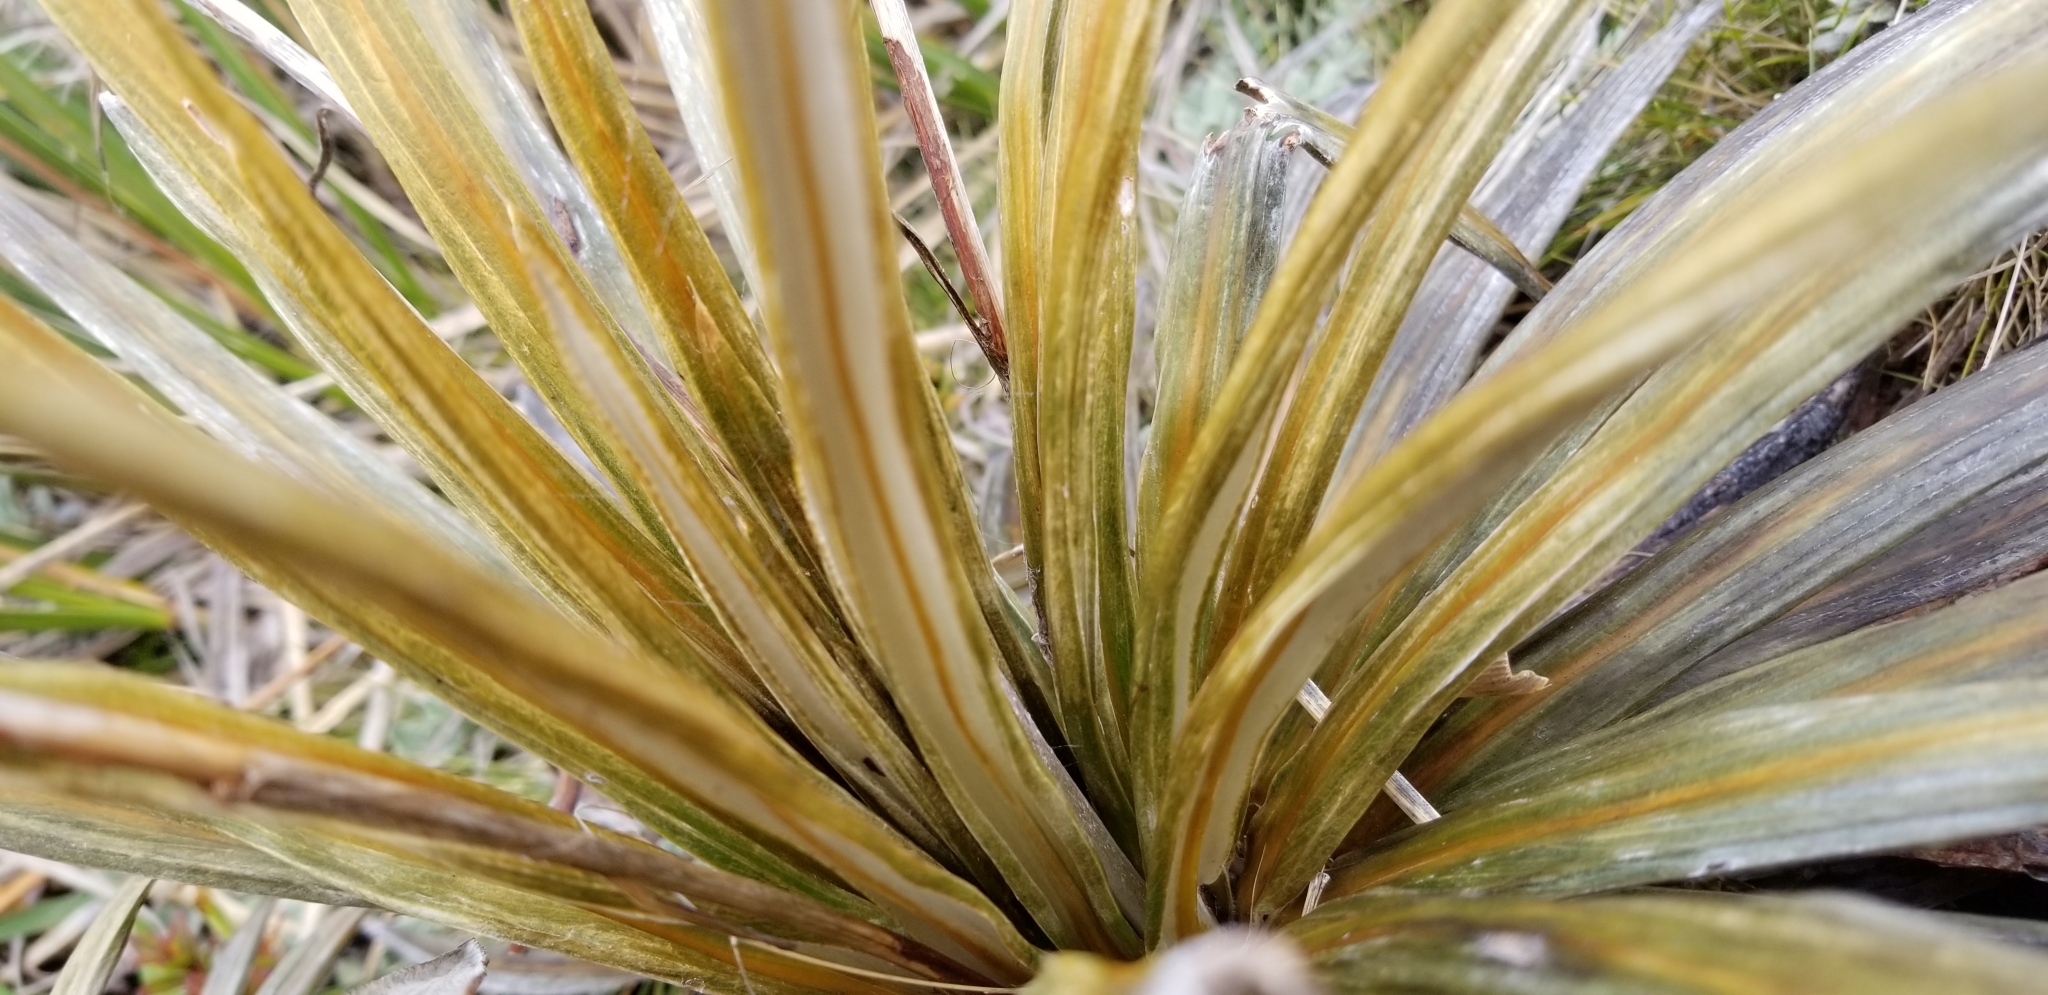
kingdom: Plantae
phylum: Tracheophyta
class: Magnoliopsida
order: Asterales
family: Asteraceae
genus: Celmisia
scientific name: Celmisia armstrongii
